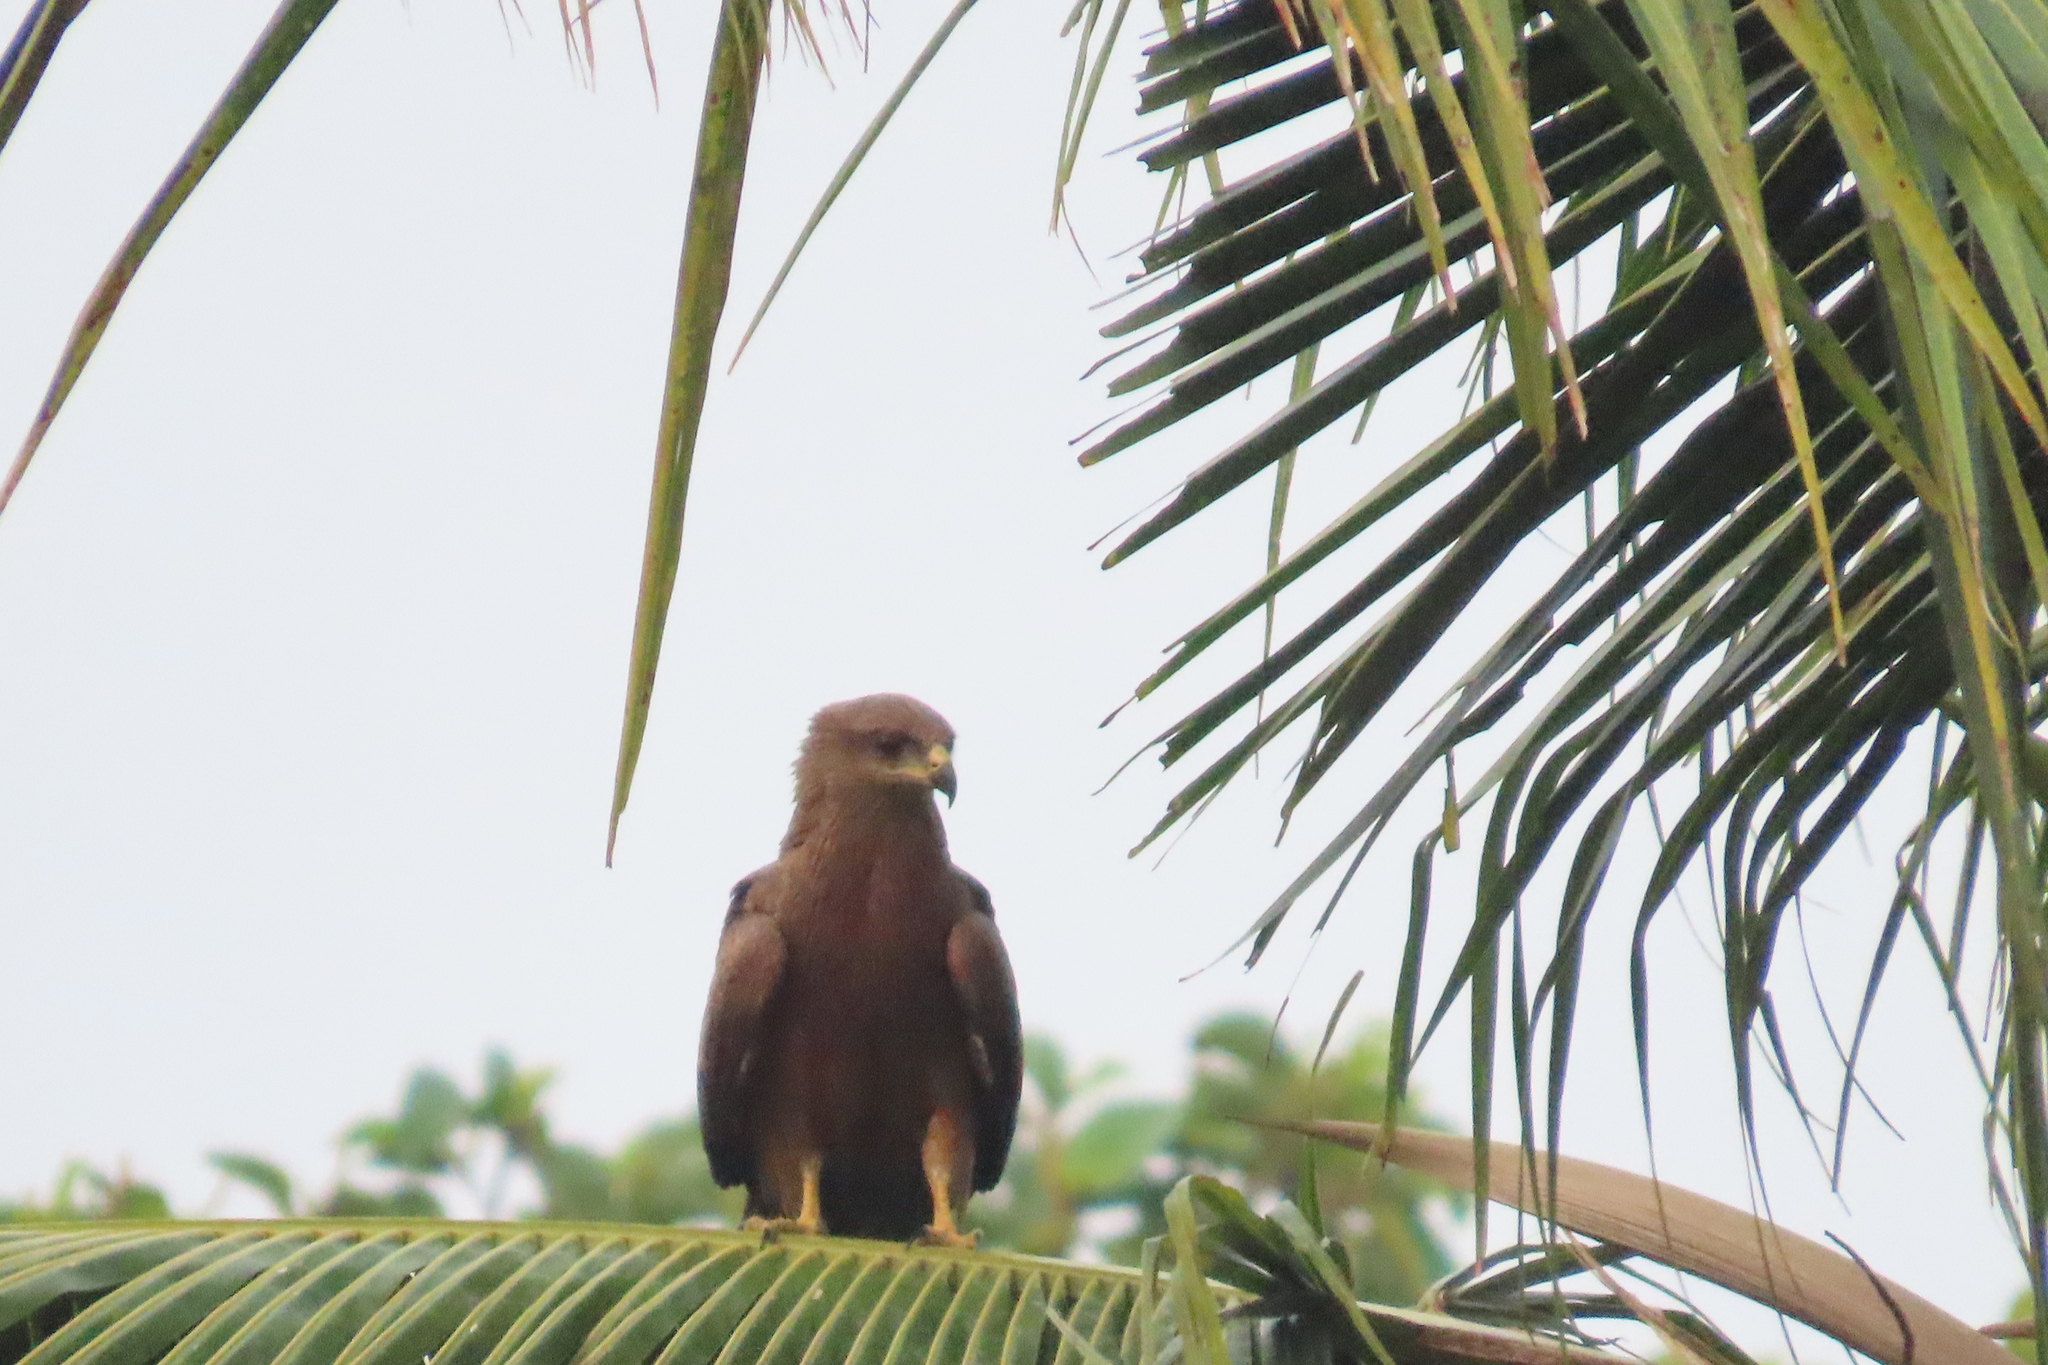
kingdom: Animalia
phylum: Chordata
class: Aves
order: Accipitriformes
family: Accipitridae
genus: Milvus
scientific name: Milvus migrans
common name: Black kite
